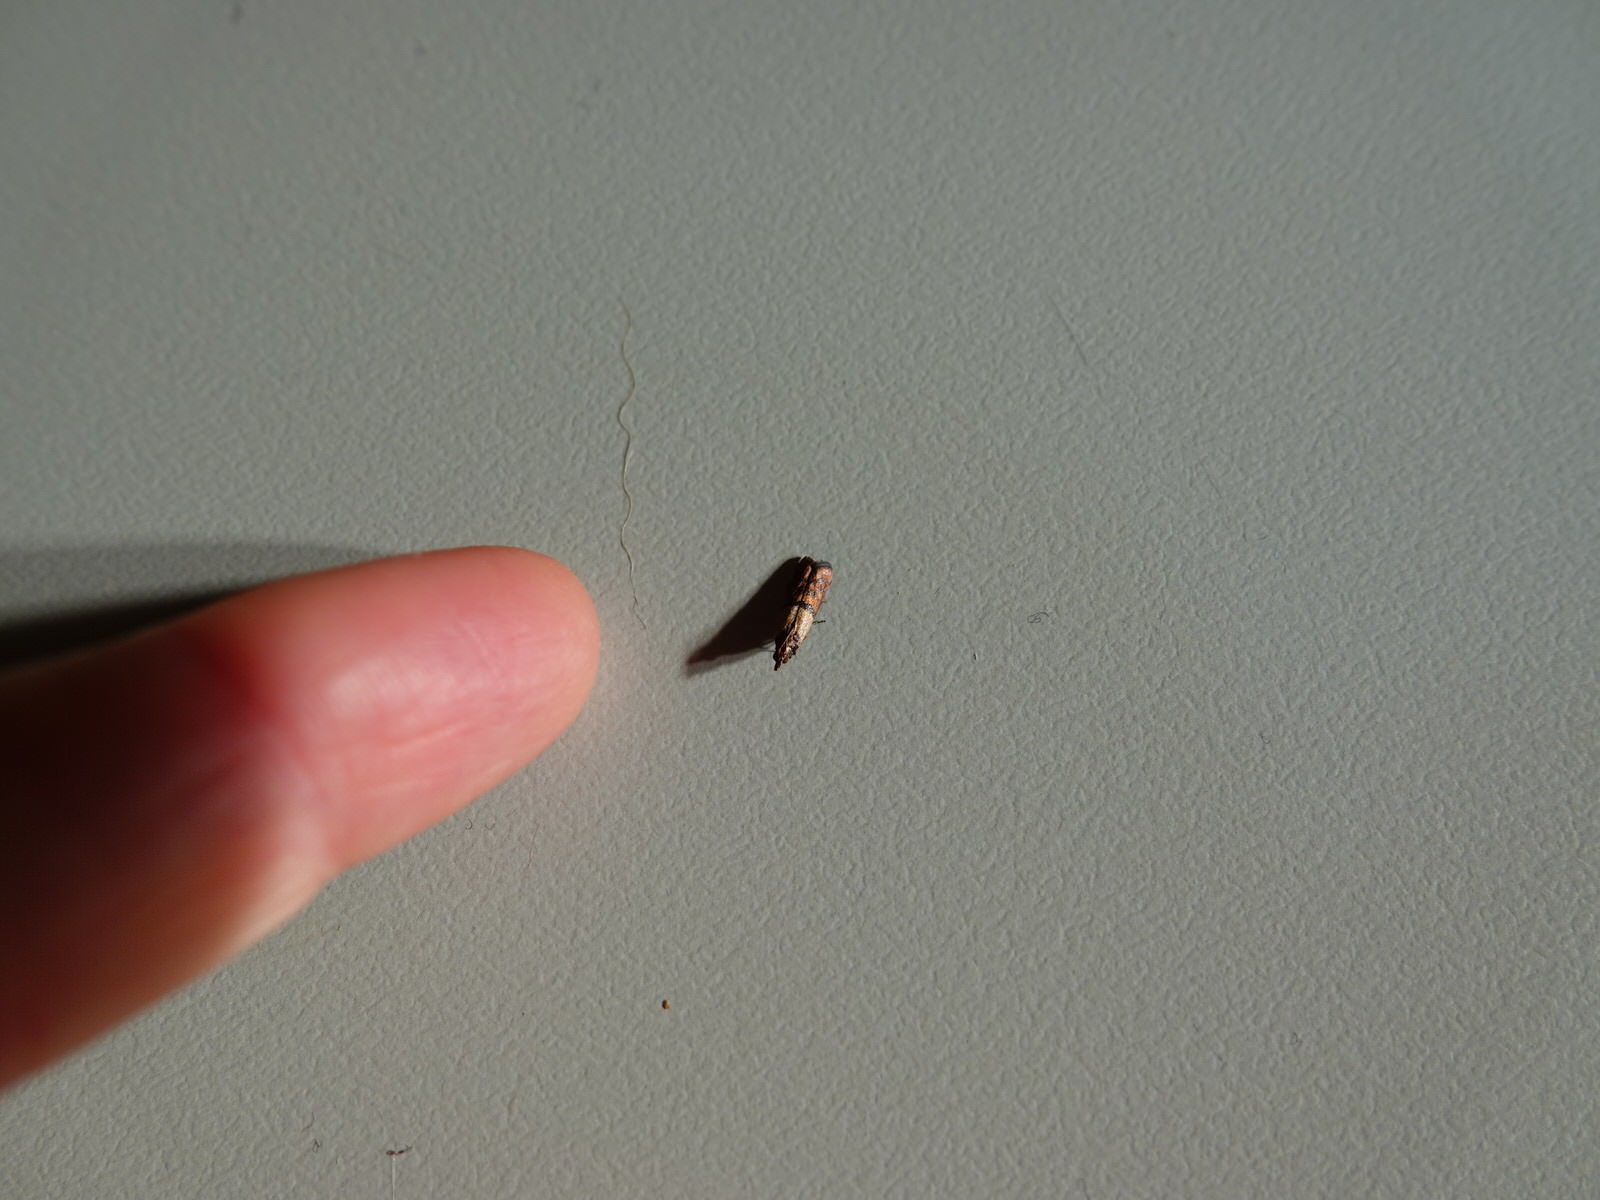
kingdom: Animalia
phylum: Arthropoda
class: Insecta
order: Lepidoptera
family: Pyralidae
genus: Plodia
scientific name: Plodia interpunctella
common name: Indian meal moth
